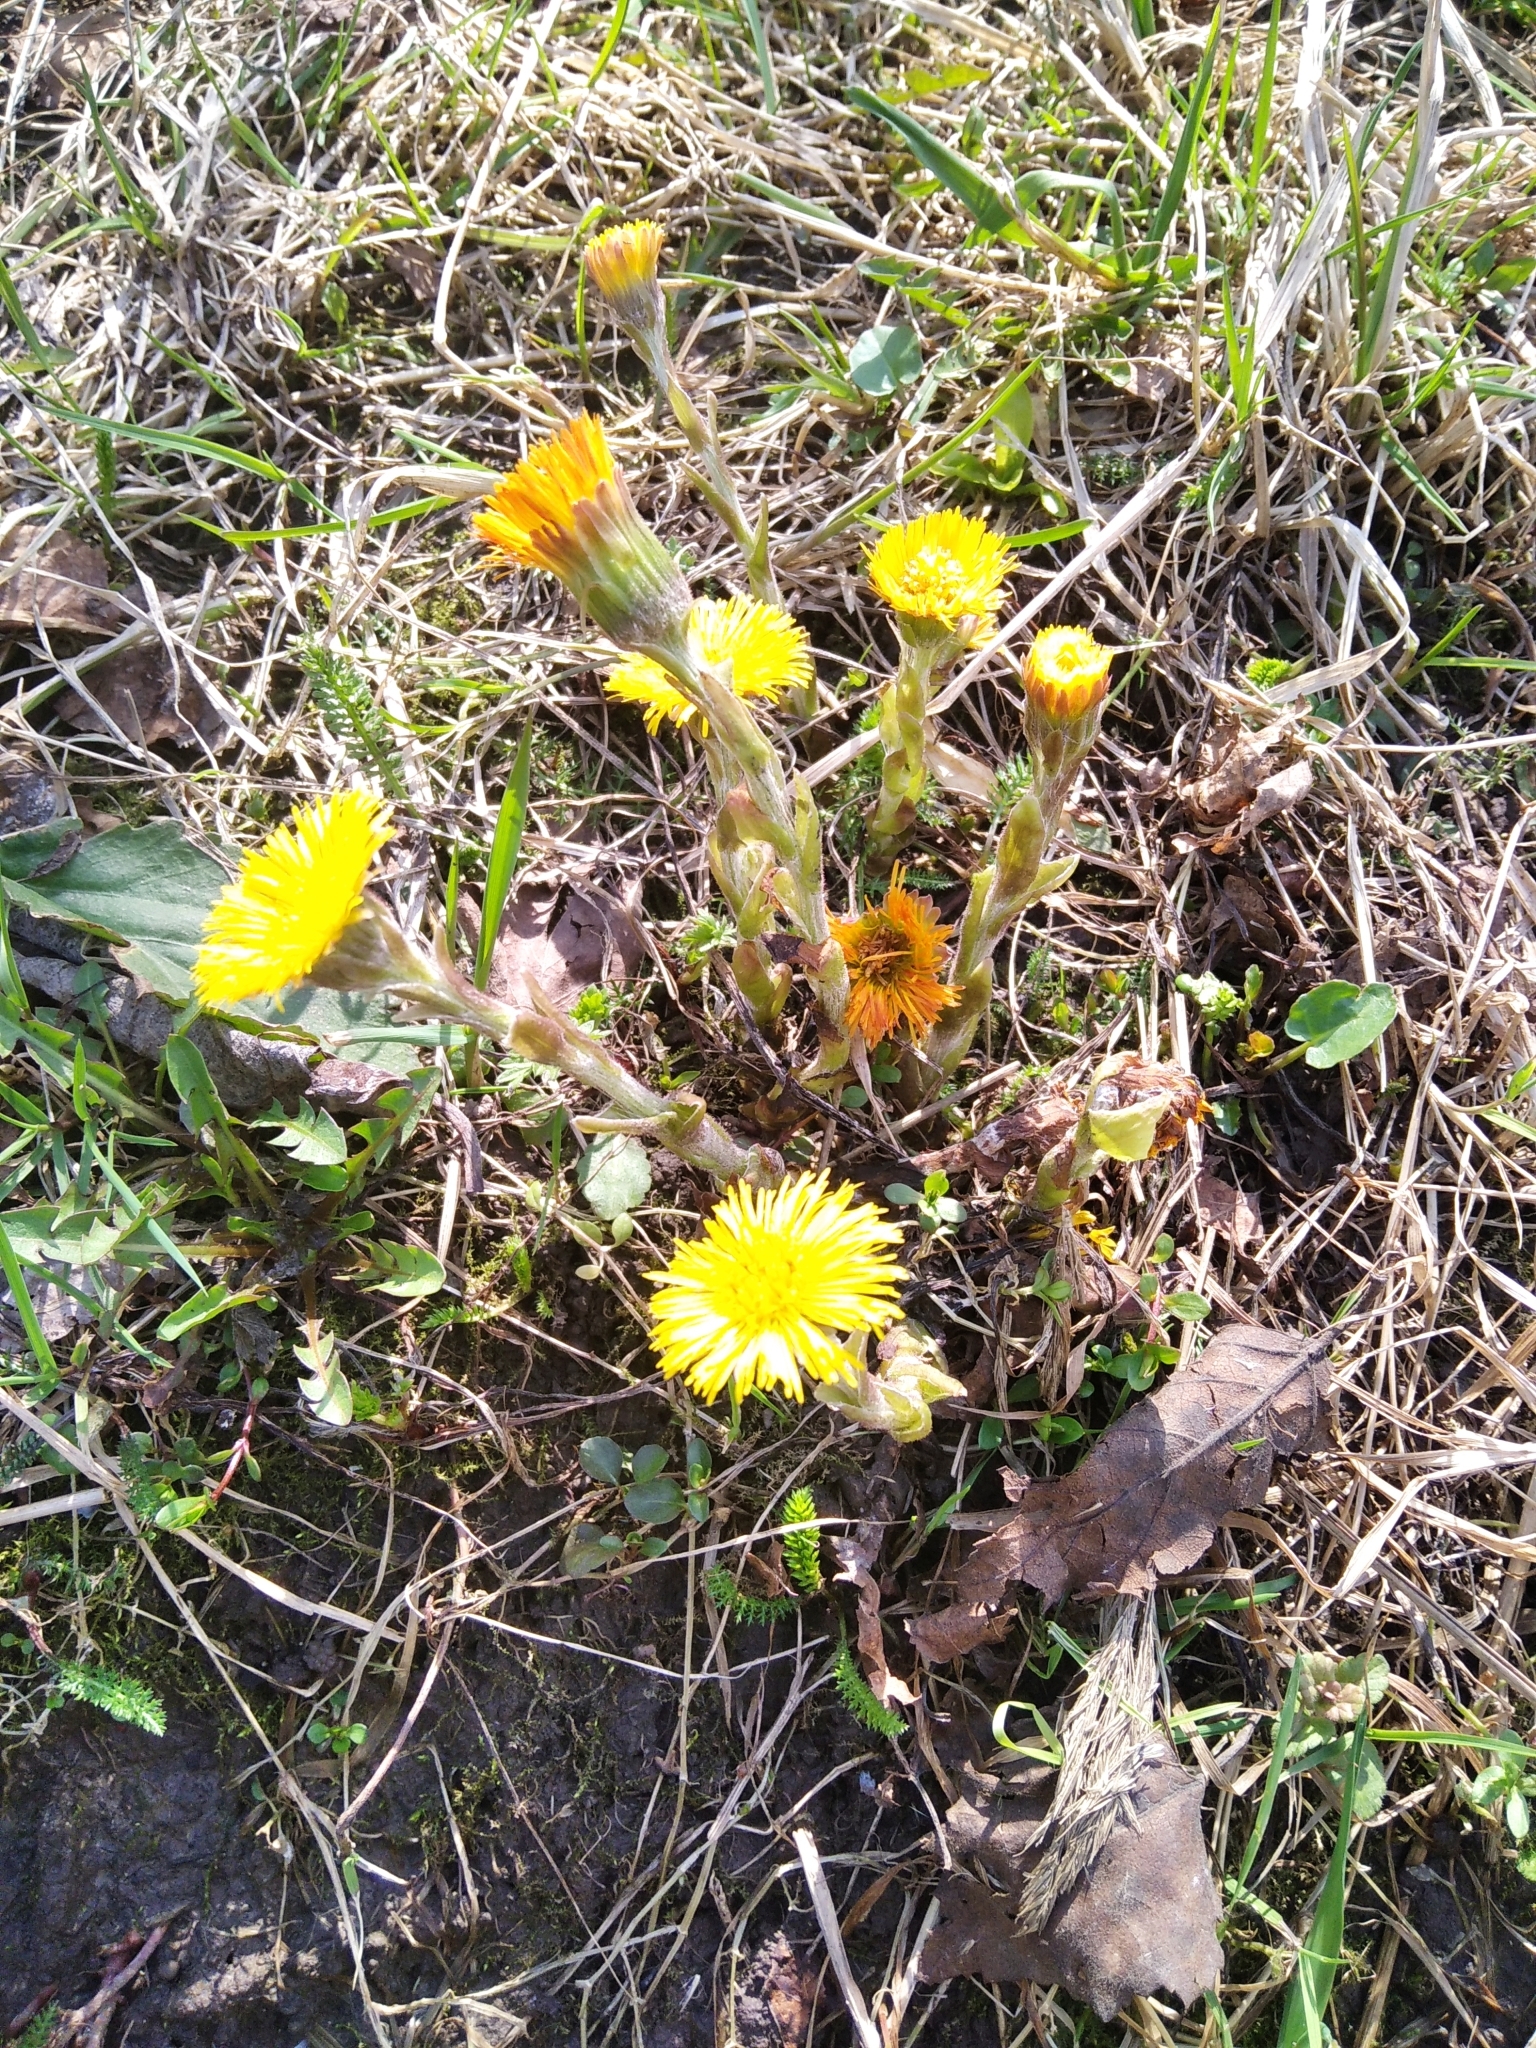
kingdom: Plantae
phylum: Tracheophyta
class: Magnoliopsida
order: Asterales
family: Asteraceae
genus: Tussilago
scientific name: Tussilago farfara
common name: Coltsfoot
